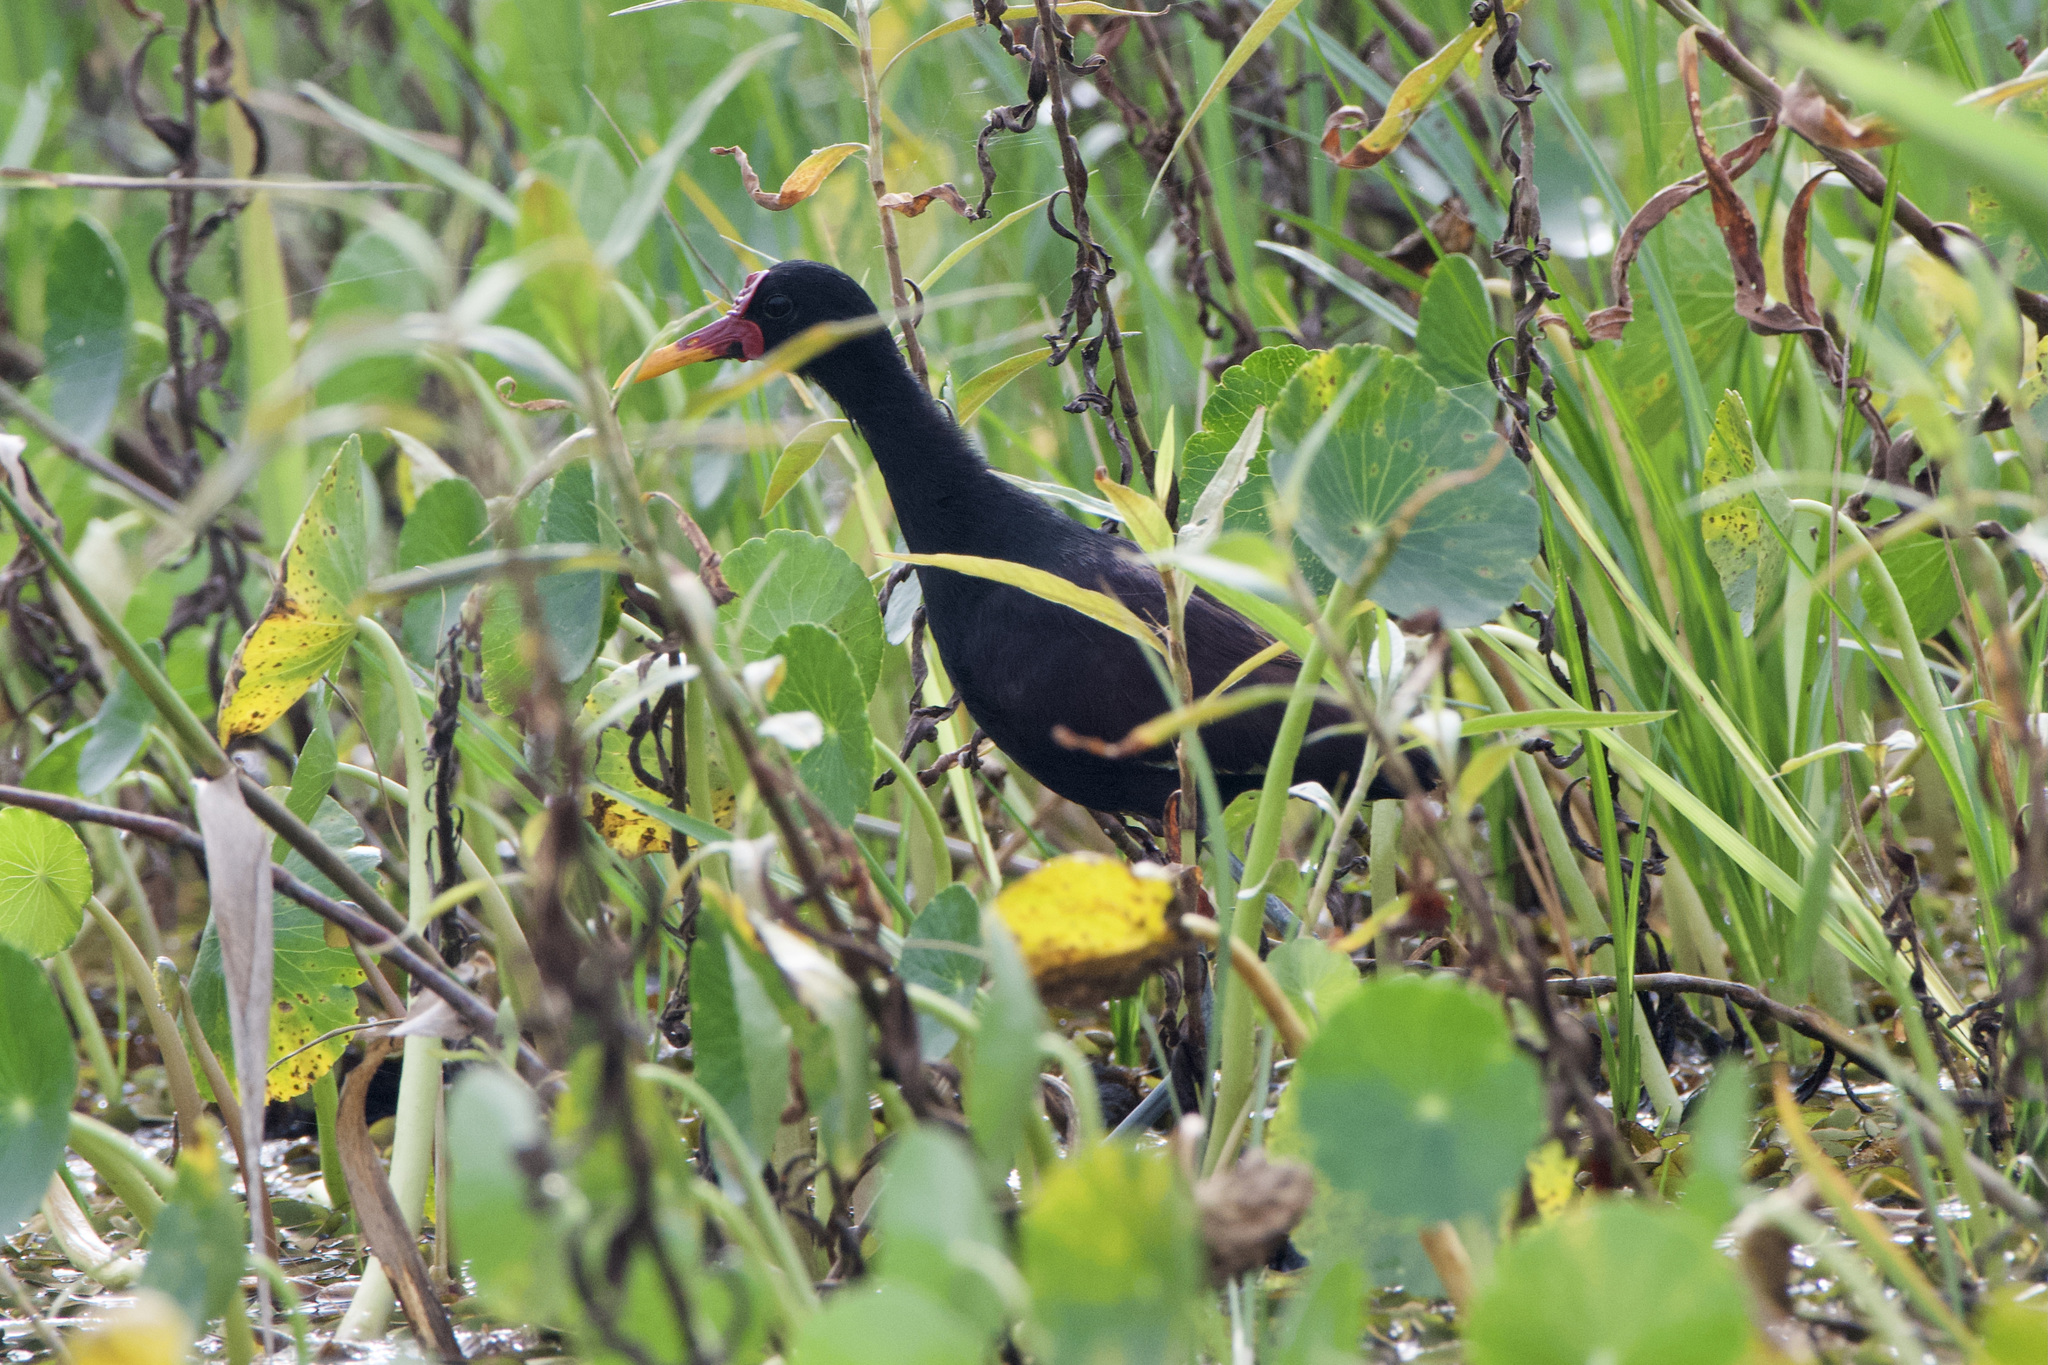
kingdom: Animalia
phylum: Chordata
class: Aves
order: Charadriiformes
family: Jacanidae
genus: Jacana
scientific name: Jacana jacana
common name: Wattled jacana
